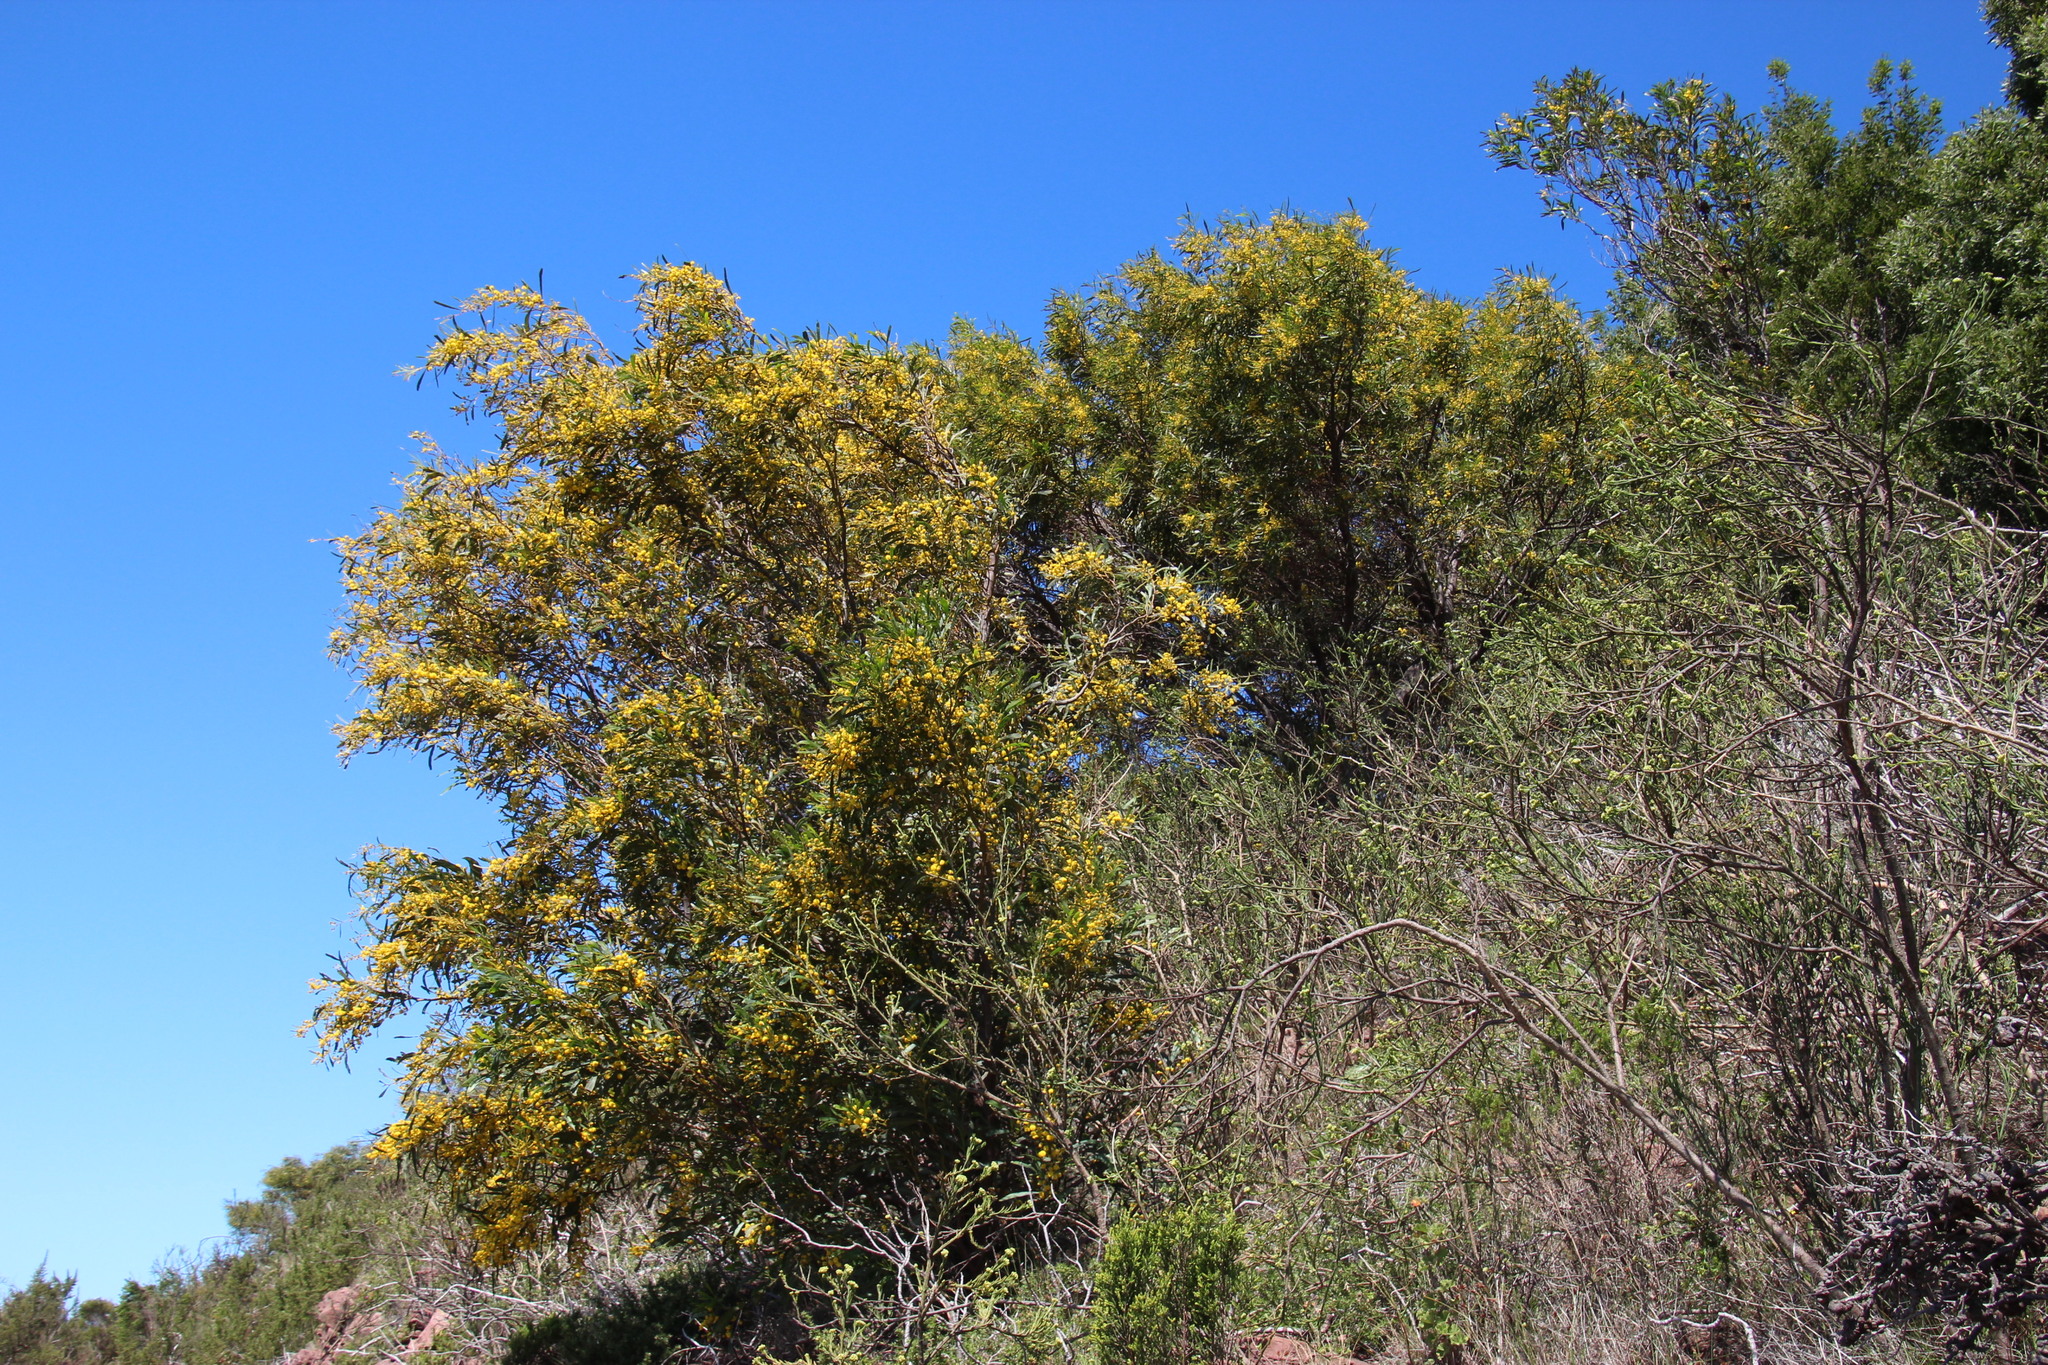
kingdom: Plantae
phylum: Tracheophyta
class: Magnoliopsida
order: Fabales
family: Fabaceae
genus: Acacia
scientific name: Acacia saligna
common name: Orange wattle
